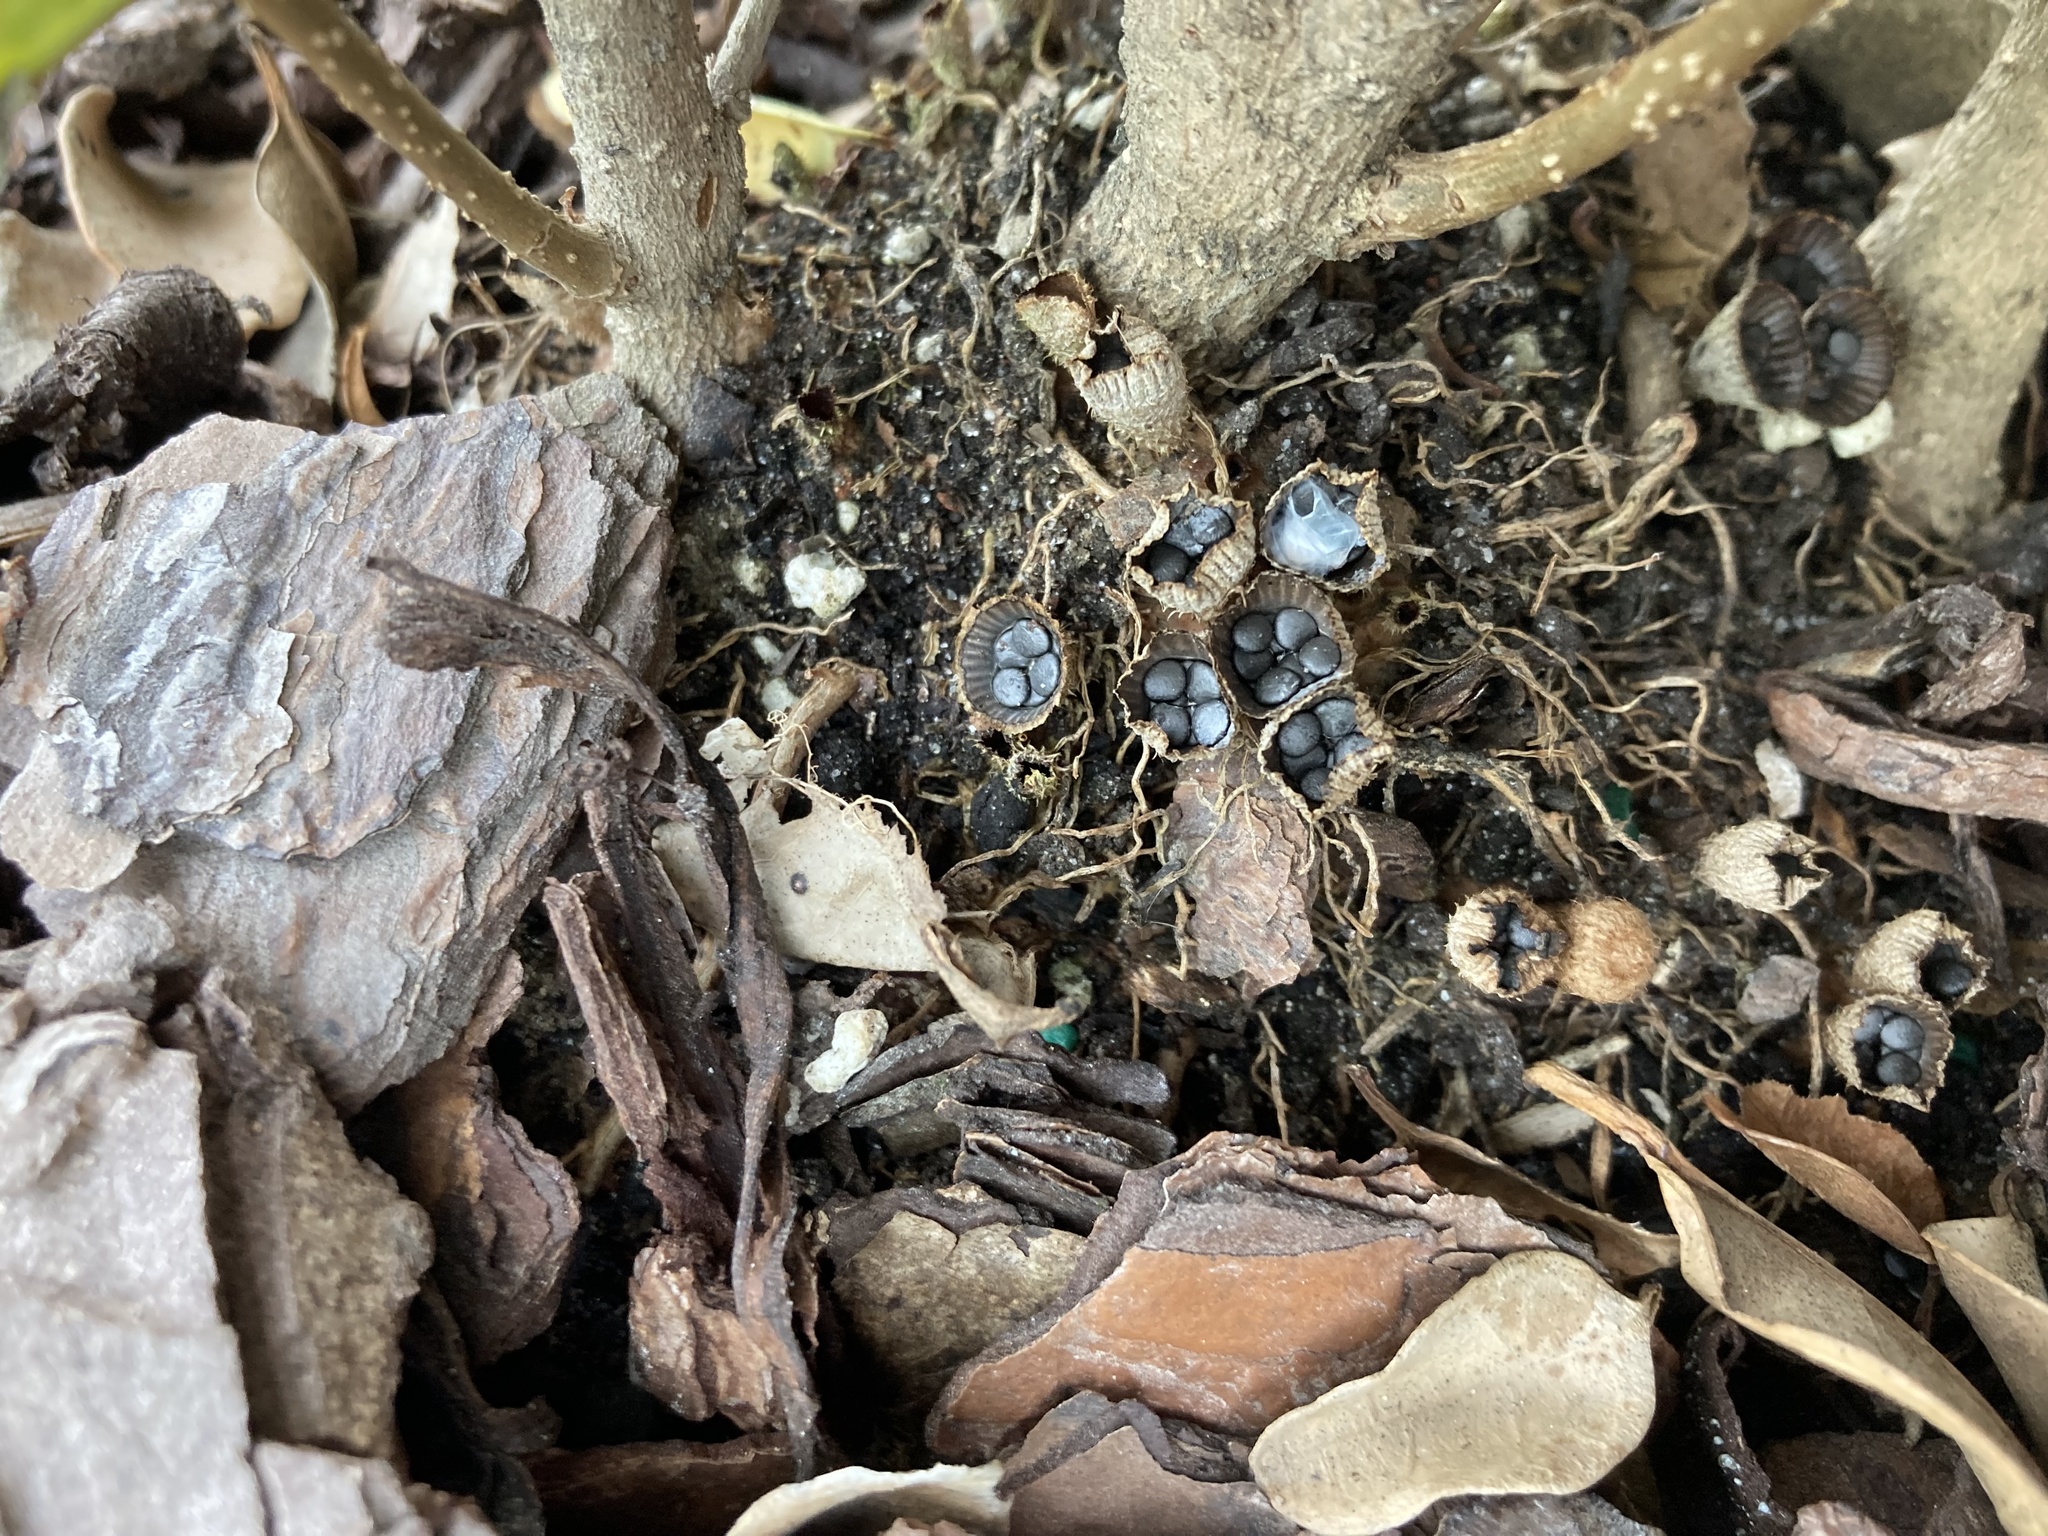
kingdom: Fungi
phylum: Basidiomycota
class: Agaricomycetes
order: Agaricales
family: Agaricaceae
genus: Cyathus
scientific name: Cyathus striatus
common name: Fluted bird's nest
